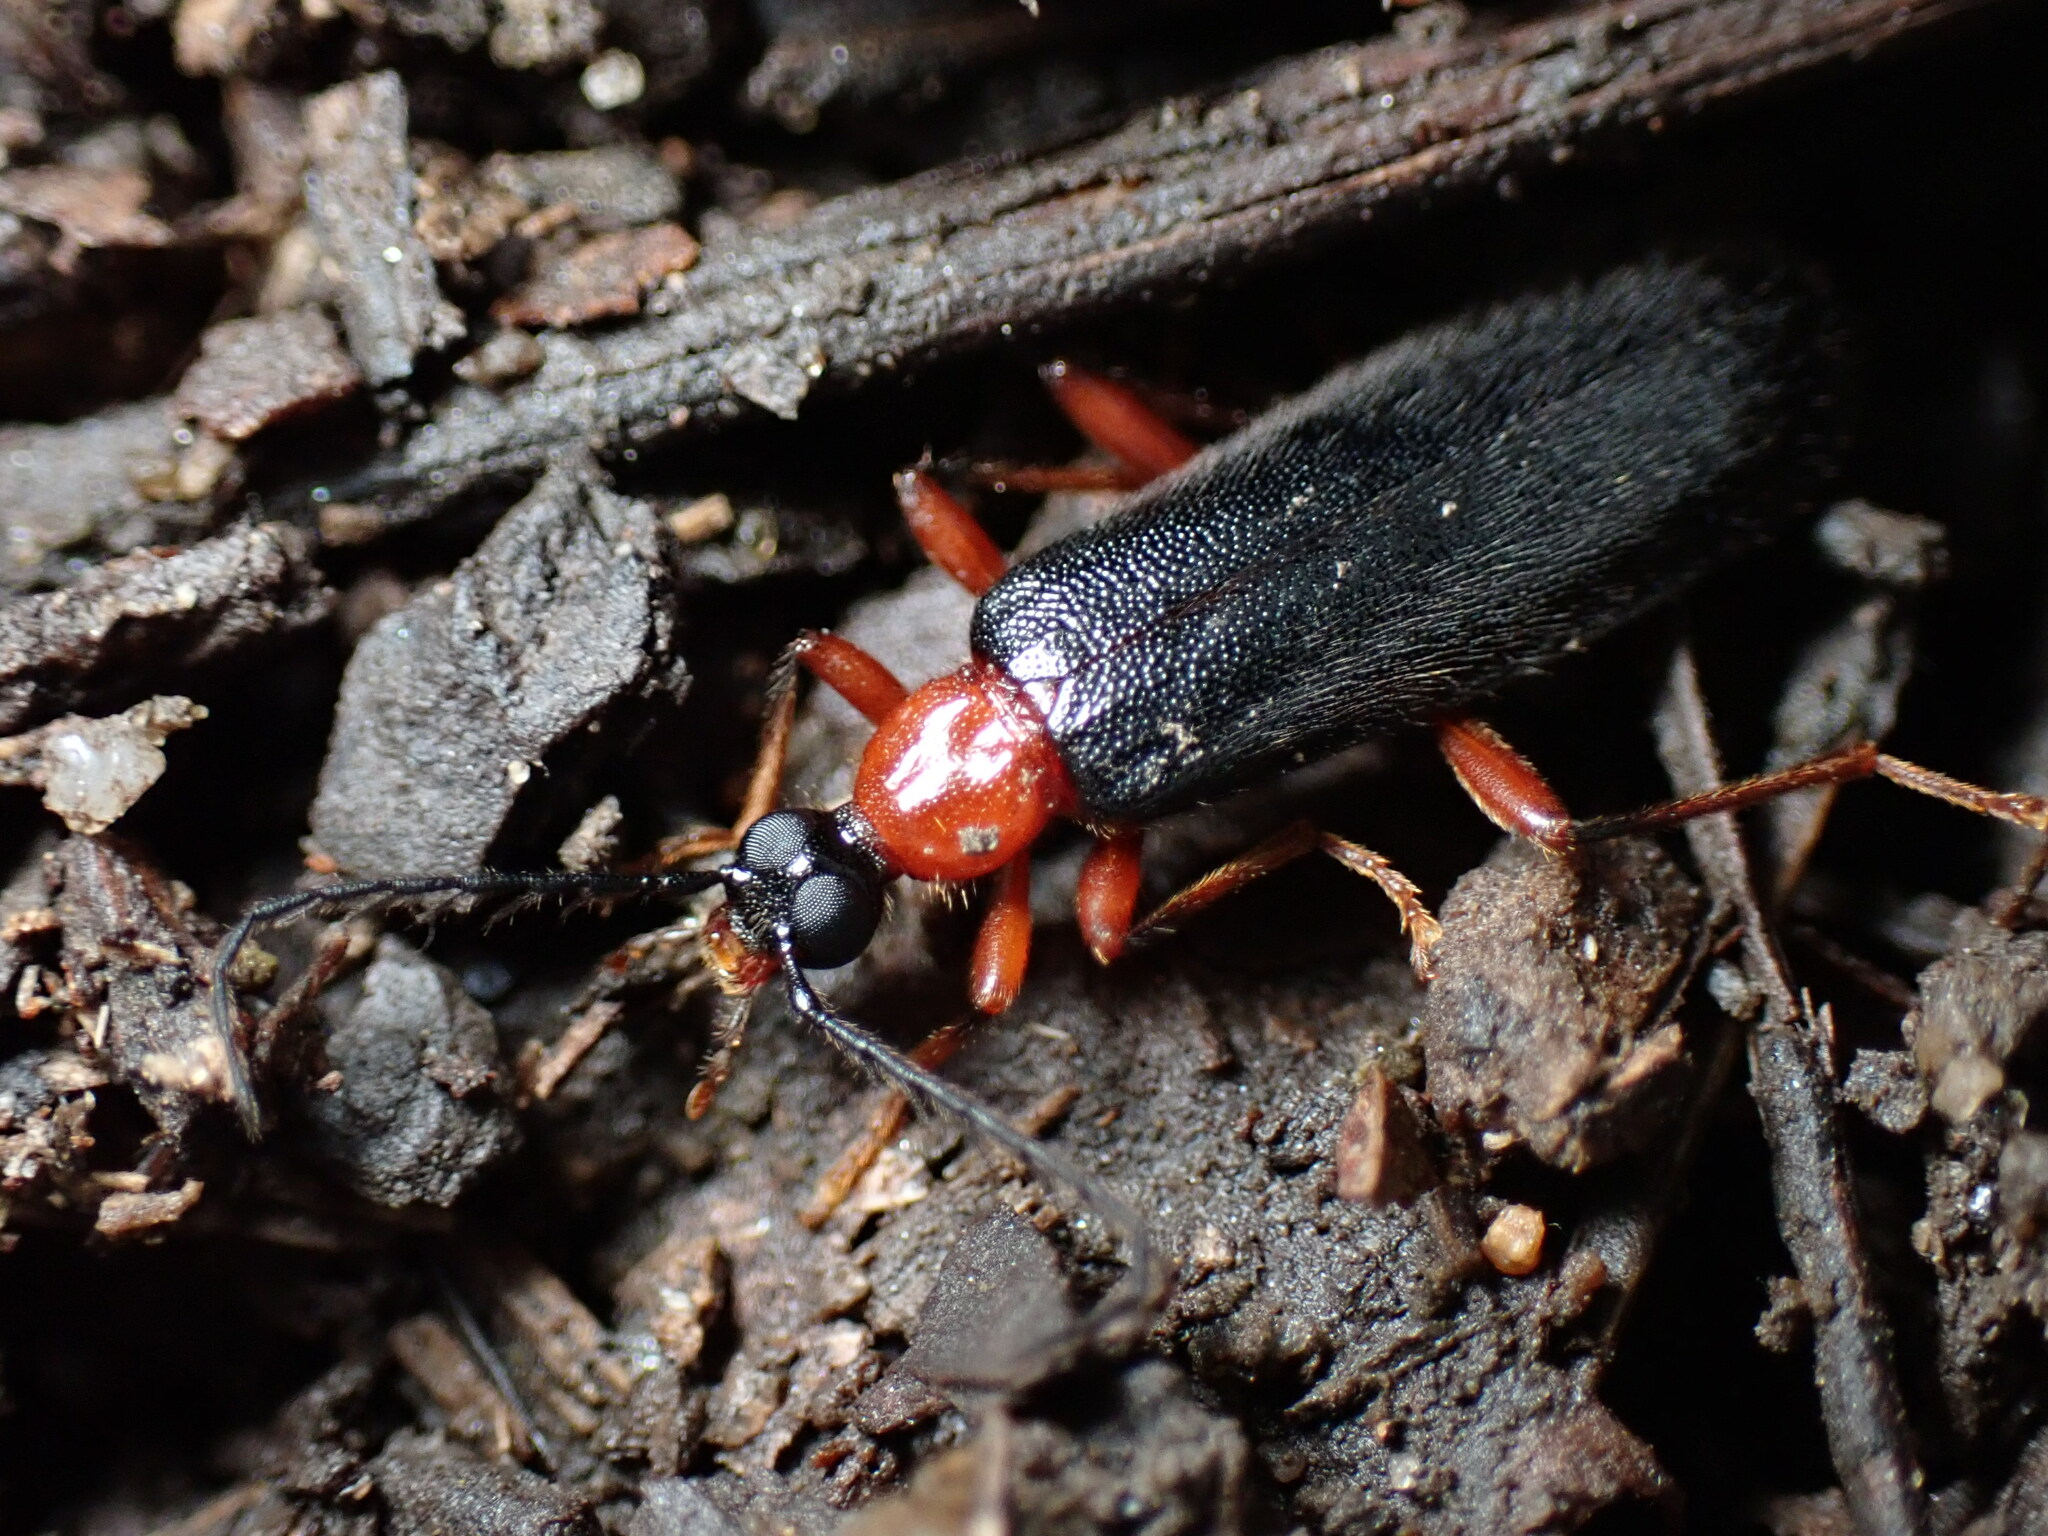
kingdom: Animalia
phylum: Arthropoda
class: Insecta
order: Coleoptera
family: Pyrochroidae
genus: Dendroides
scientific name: Dendroides canadensis
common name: Canada fire-colored beetle
